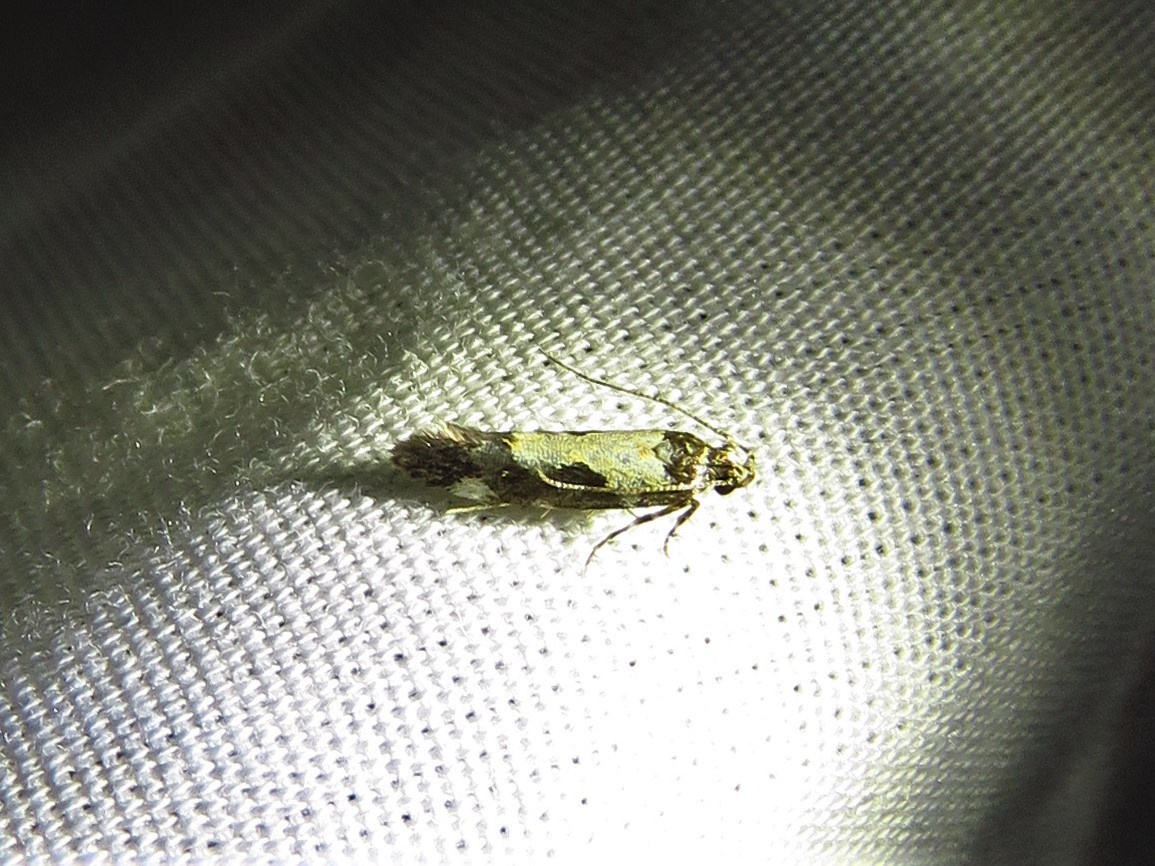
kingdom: Animalia
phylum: Arthropoda
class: Insecta
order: Lepidoptera
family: Gelechiidae
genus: Stegasta
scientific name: Stegasta bosqueella
